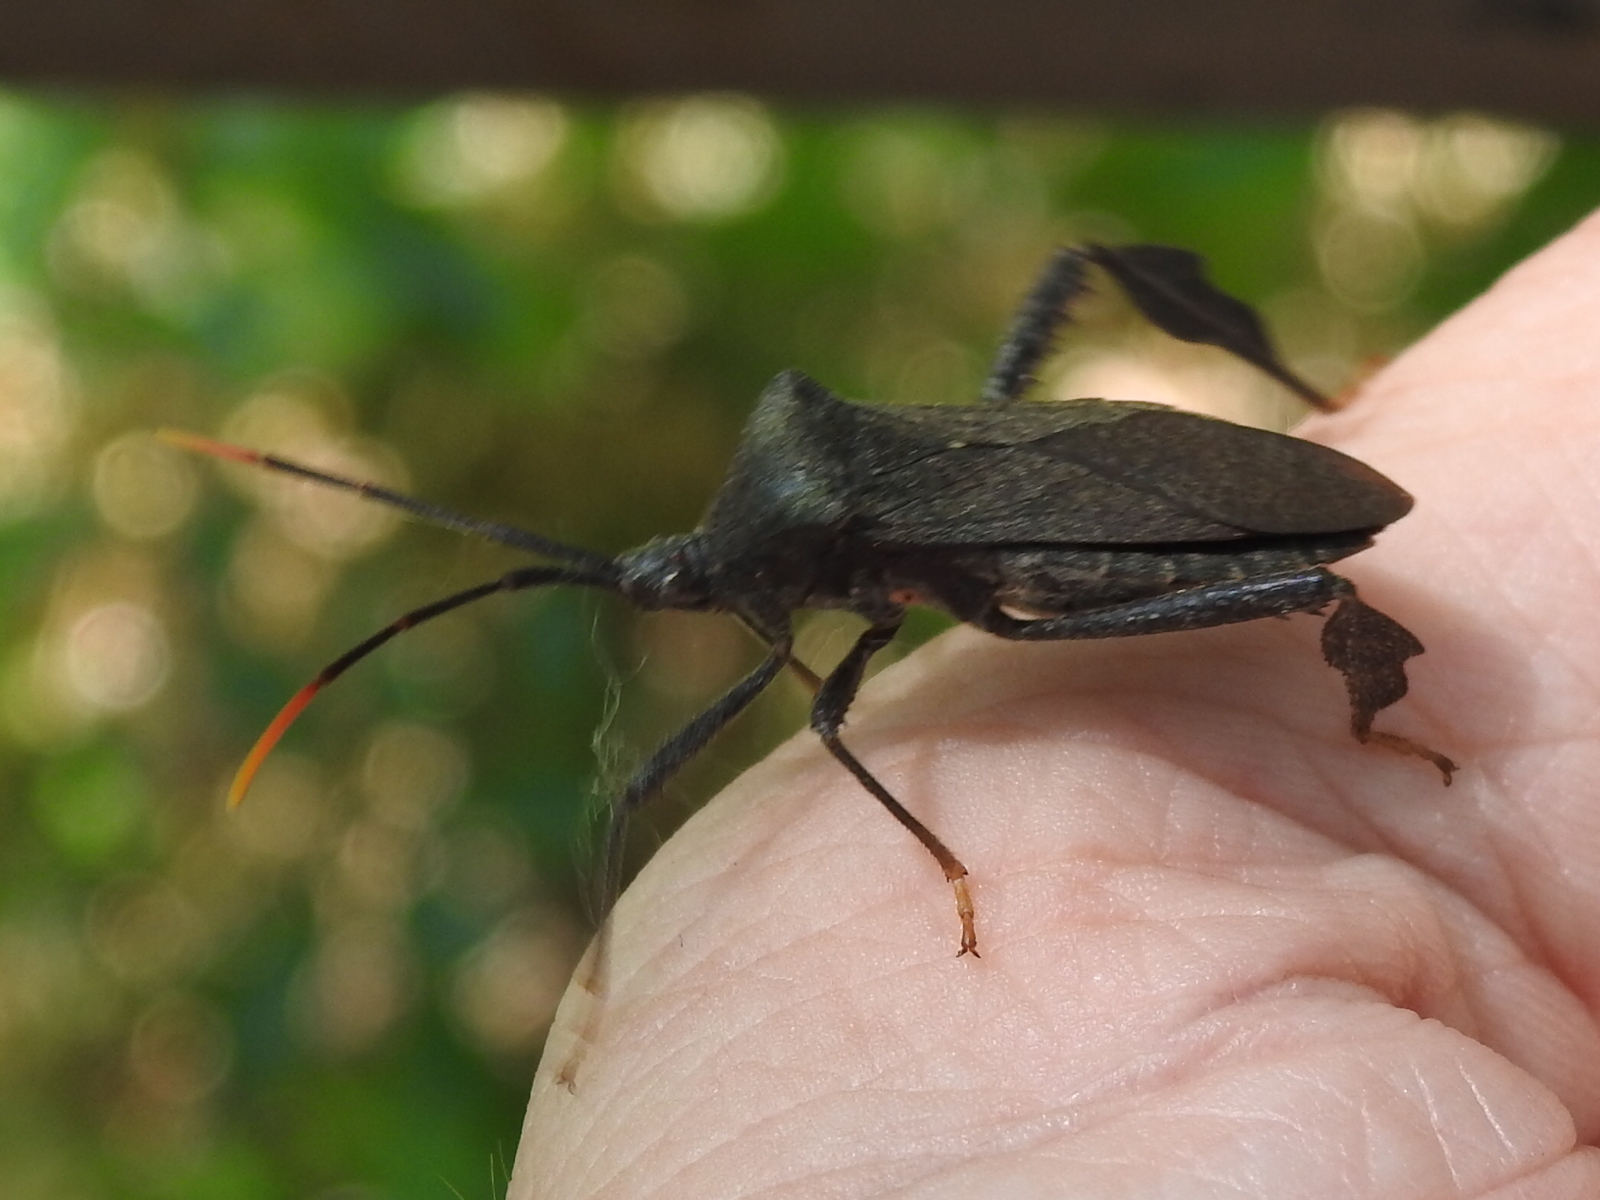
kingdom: Animalia
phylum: Arthropoda
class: Insecta
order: Hemiptera
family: Coreidae
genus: Acanthocephala
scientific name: Acanthocephala terminalis
